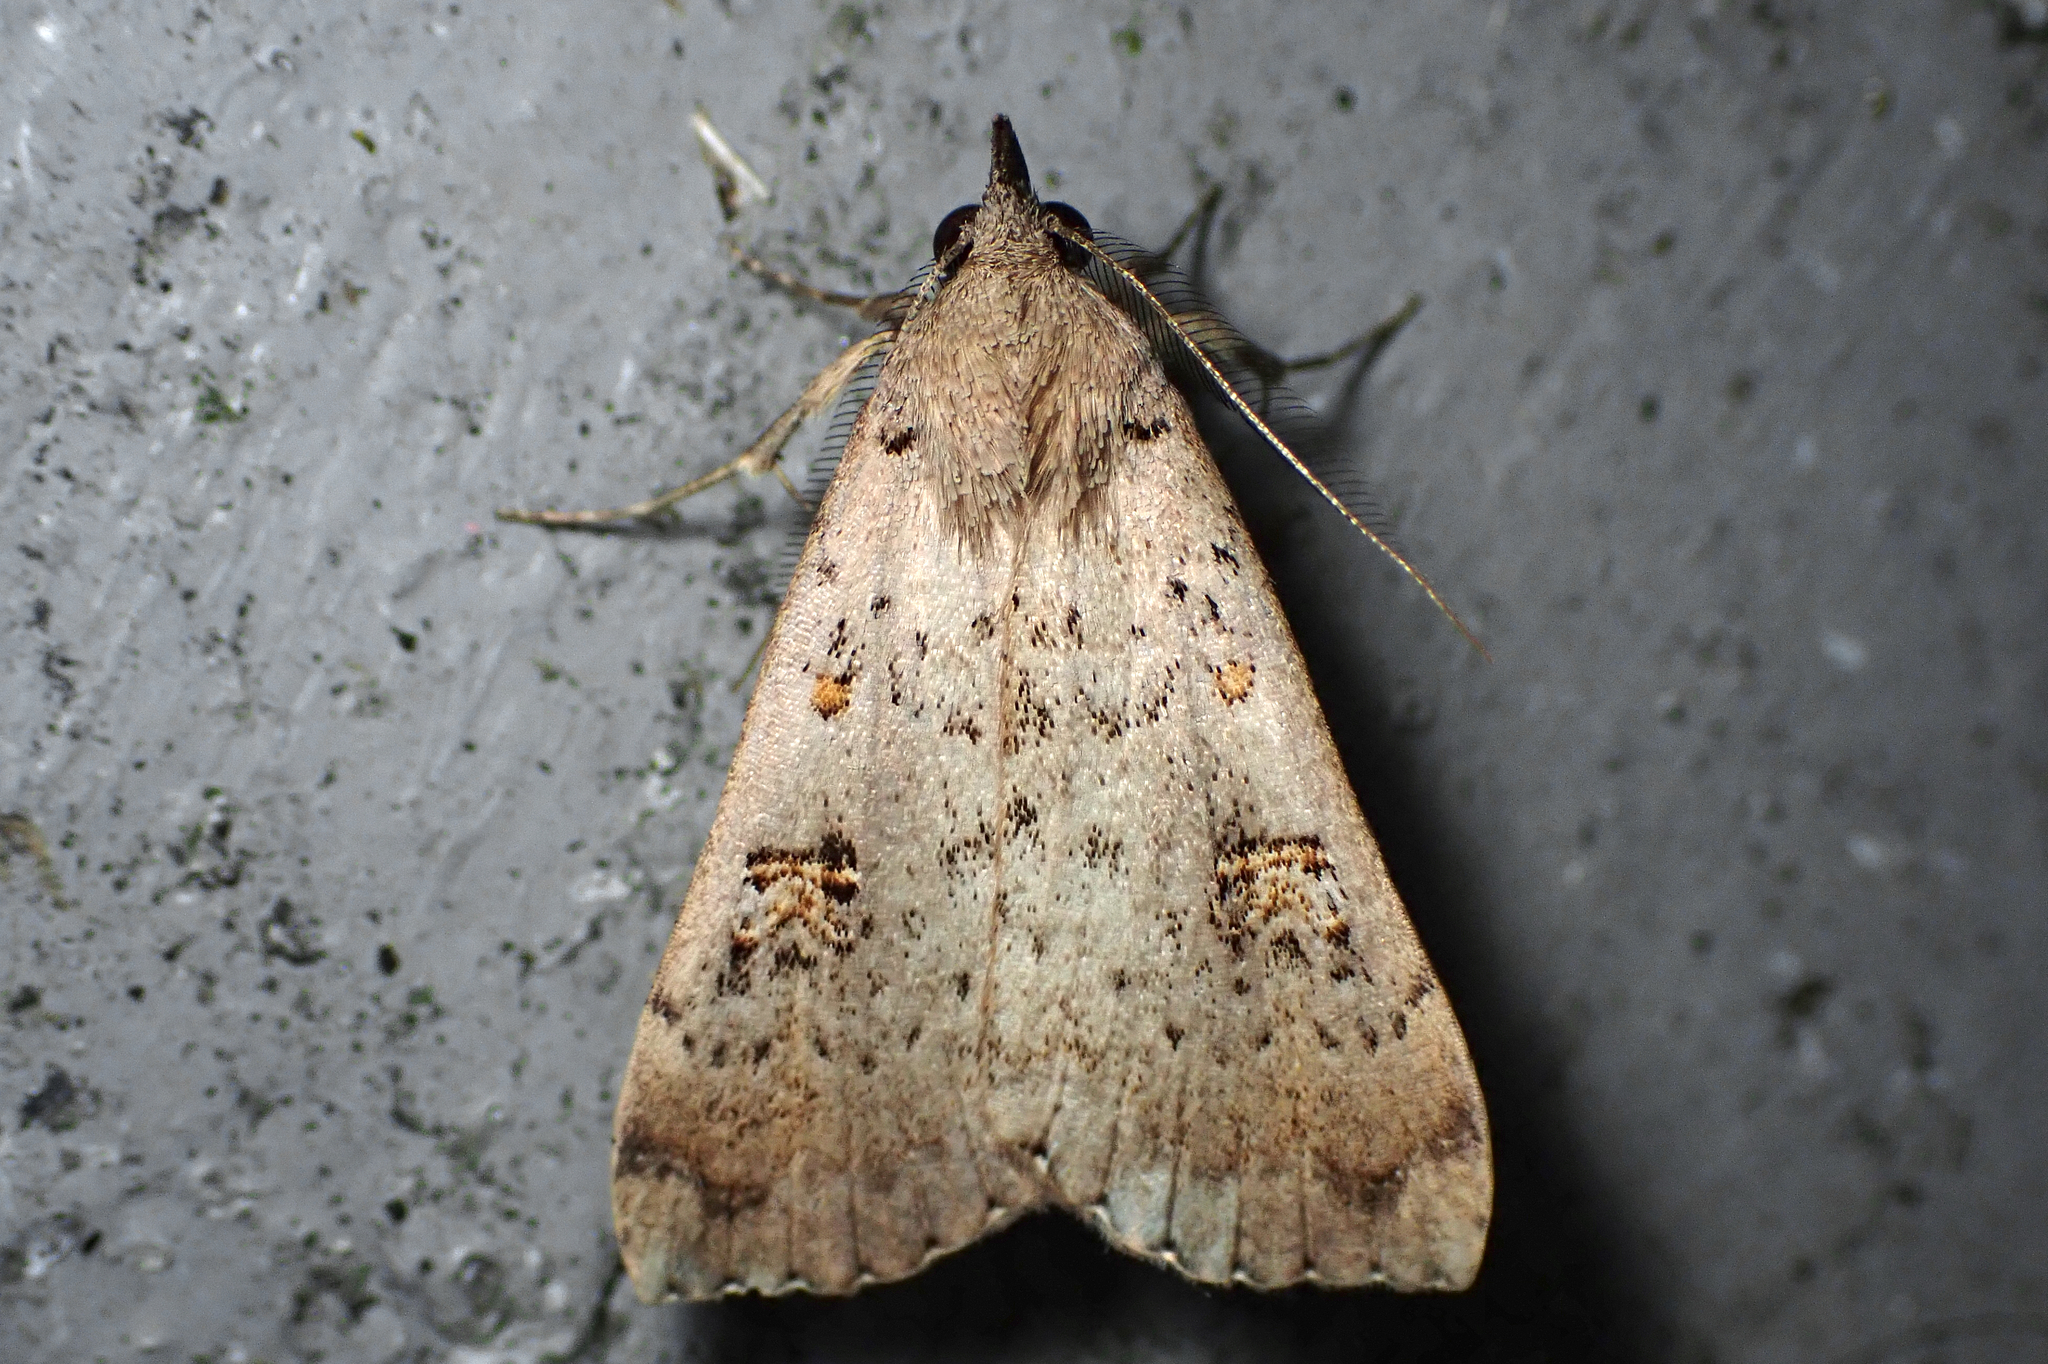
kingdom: Animalia
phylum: Arthropoda
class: Insecta
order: Lepidoptera
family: Erebidae
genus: Rhapsa
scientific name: Rhapsa scotosialis
